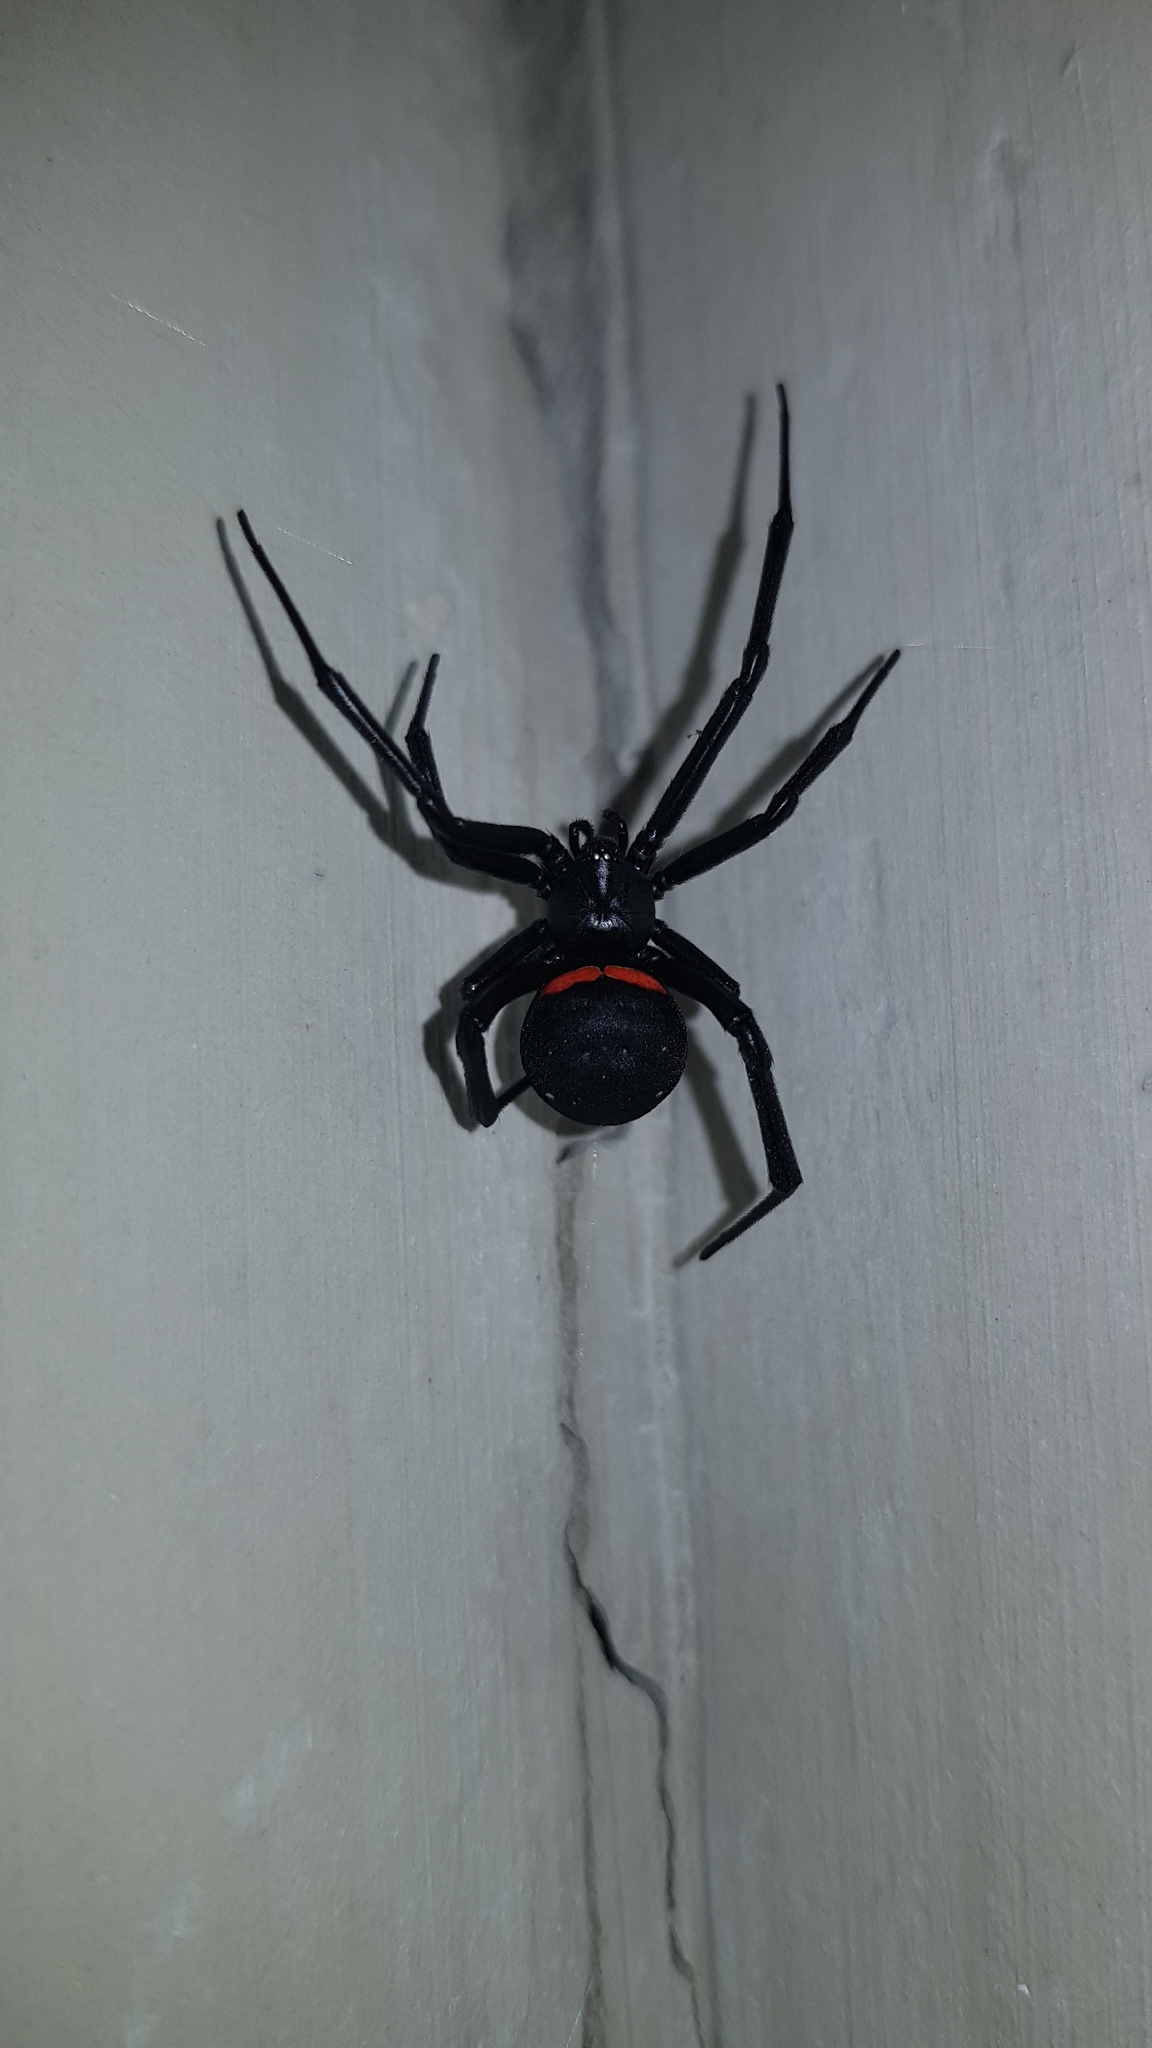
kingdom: Animalia
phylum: Arthropoda
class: Arachnida
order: Araneae
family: Theridiidae
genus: Latrodectus
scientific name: Latrodectus menavodi
